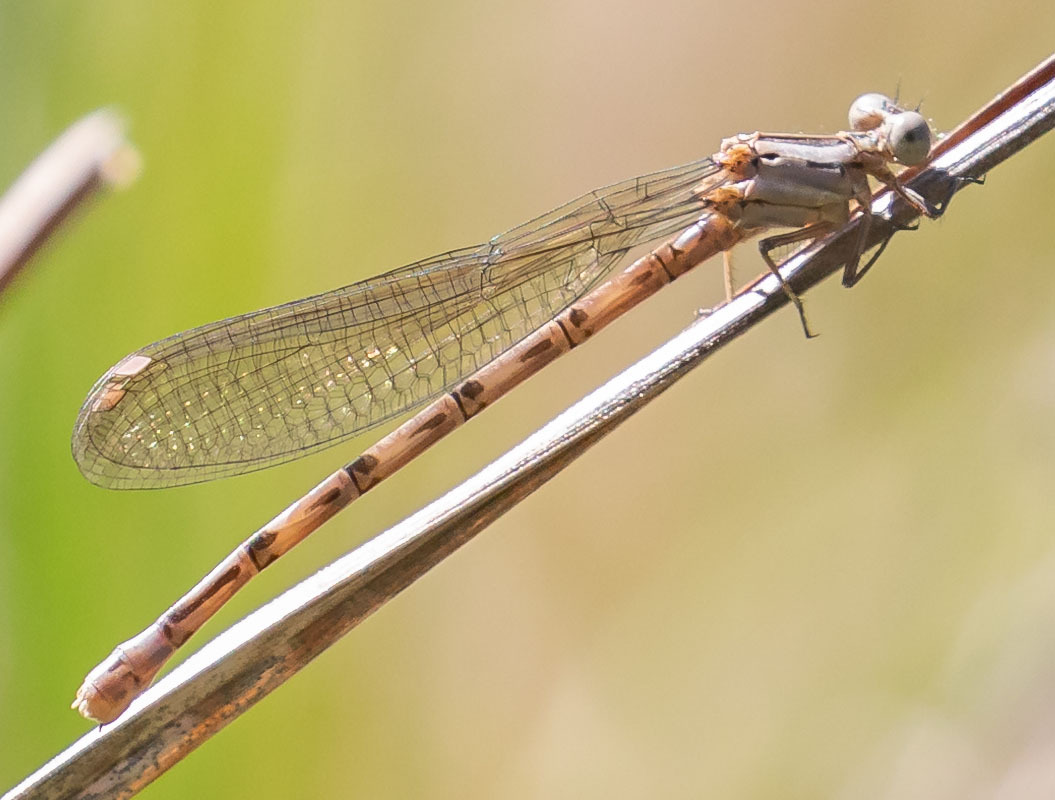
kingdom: Animalia
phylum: Arthropoda
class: Insecta
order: Odonata
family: Coenagrionidae
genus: Argia
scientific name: Argia vivida
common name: Vivid dancer
